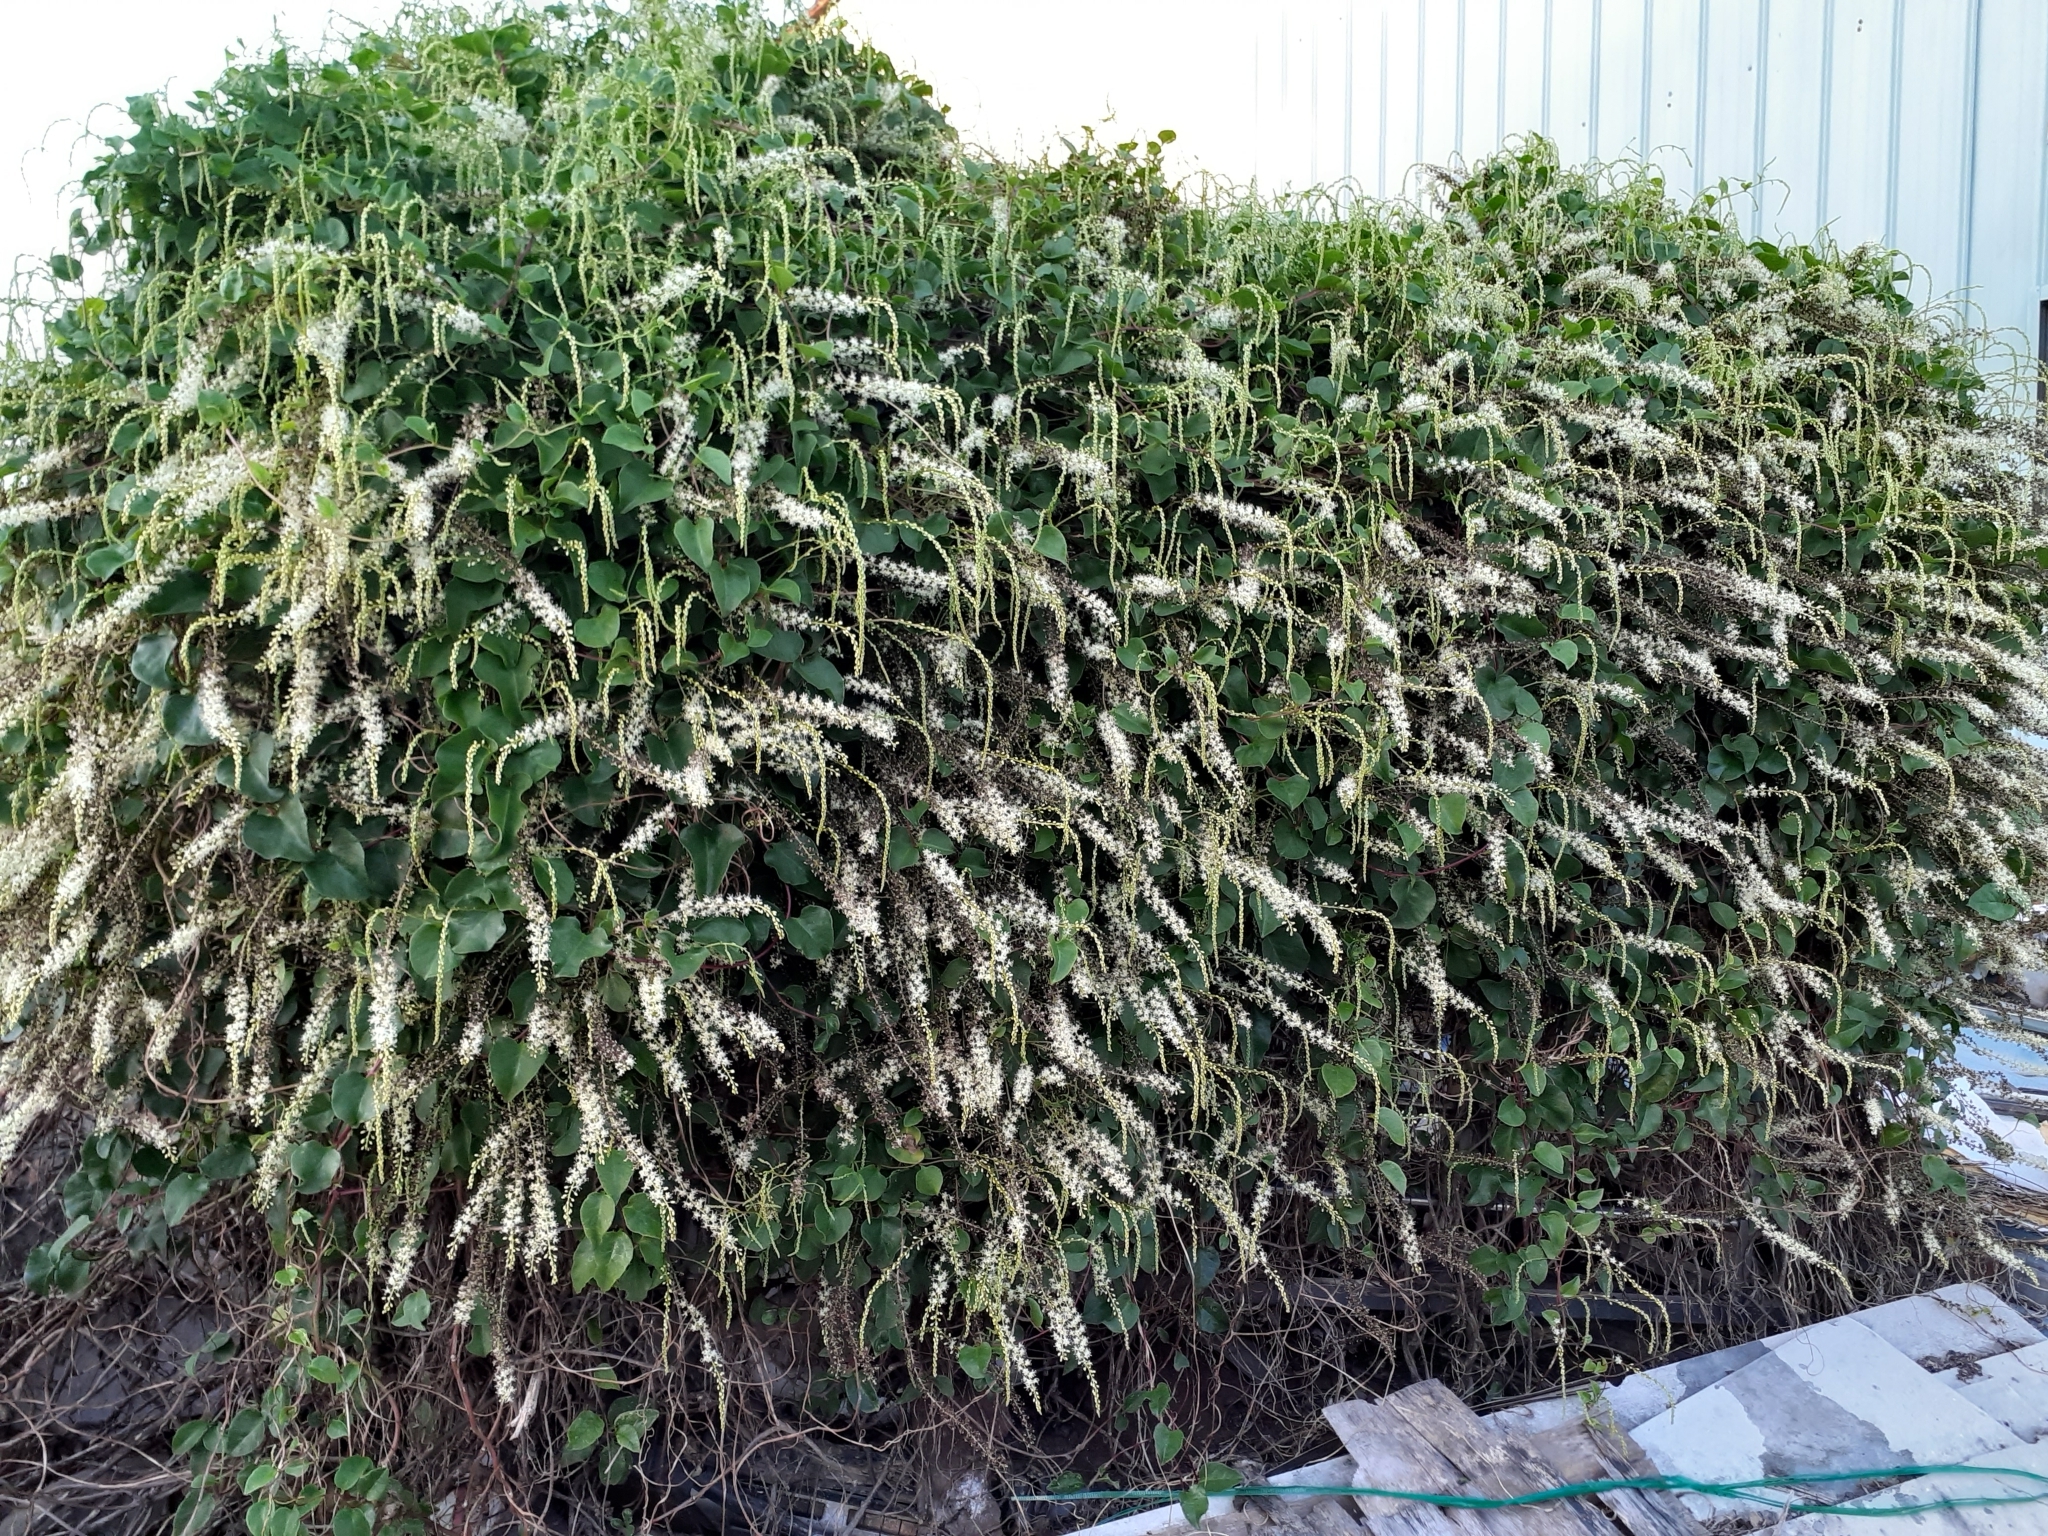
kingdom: Plantae
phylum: Tracheophyta
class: Magnoliopsida
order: Caryophyllales
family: Basellaceae
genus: Anredera
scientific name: Anredera cordifolia
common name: Heartleaf madeiravine
